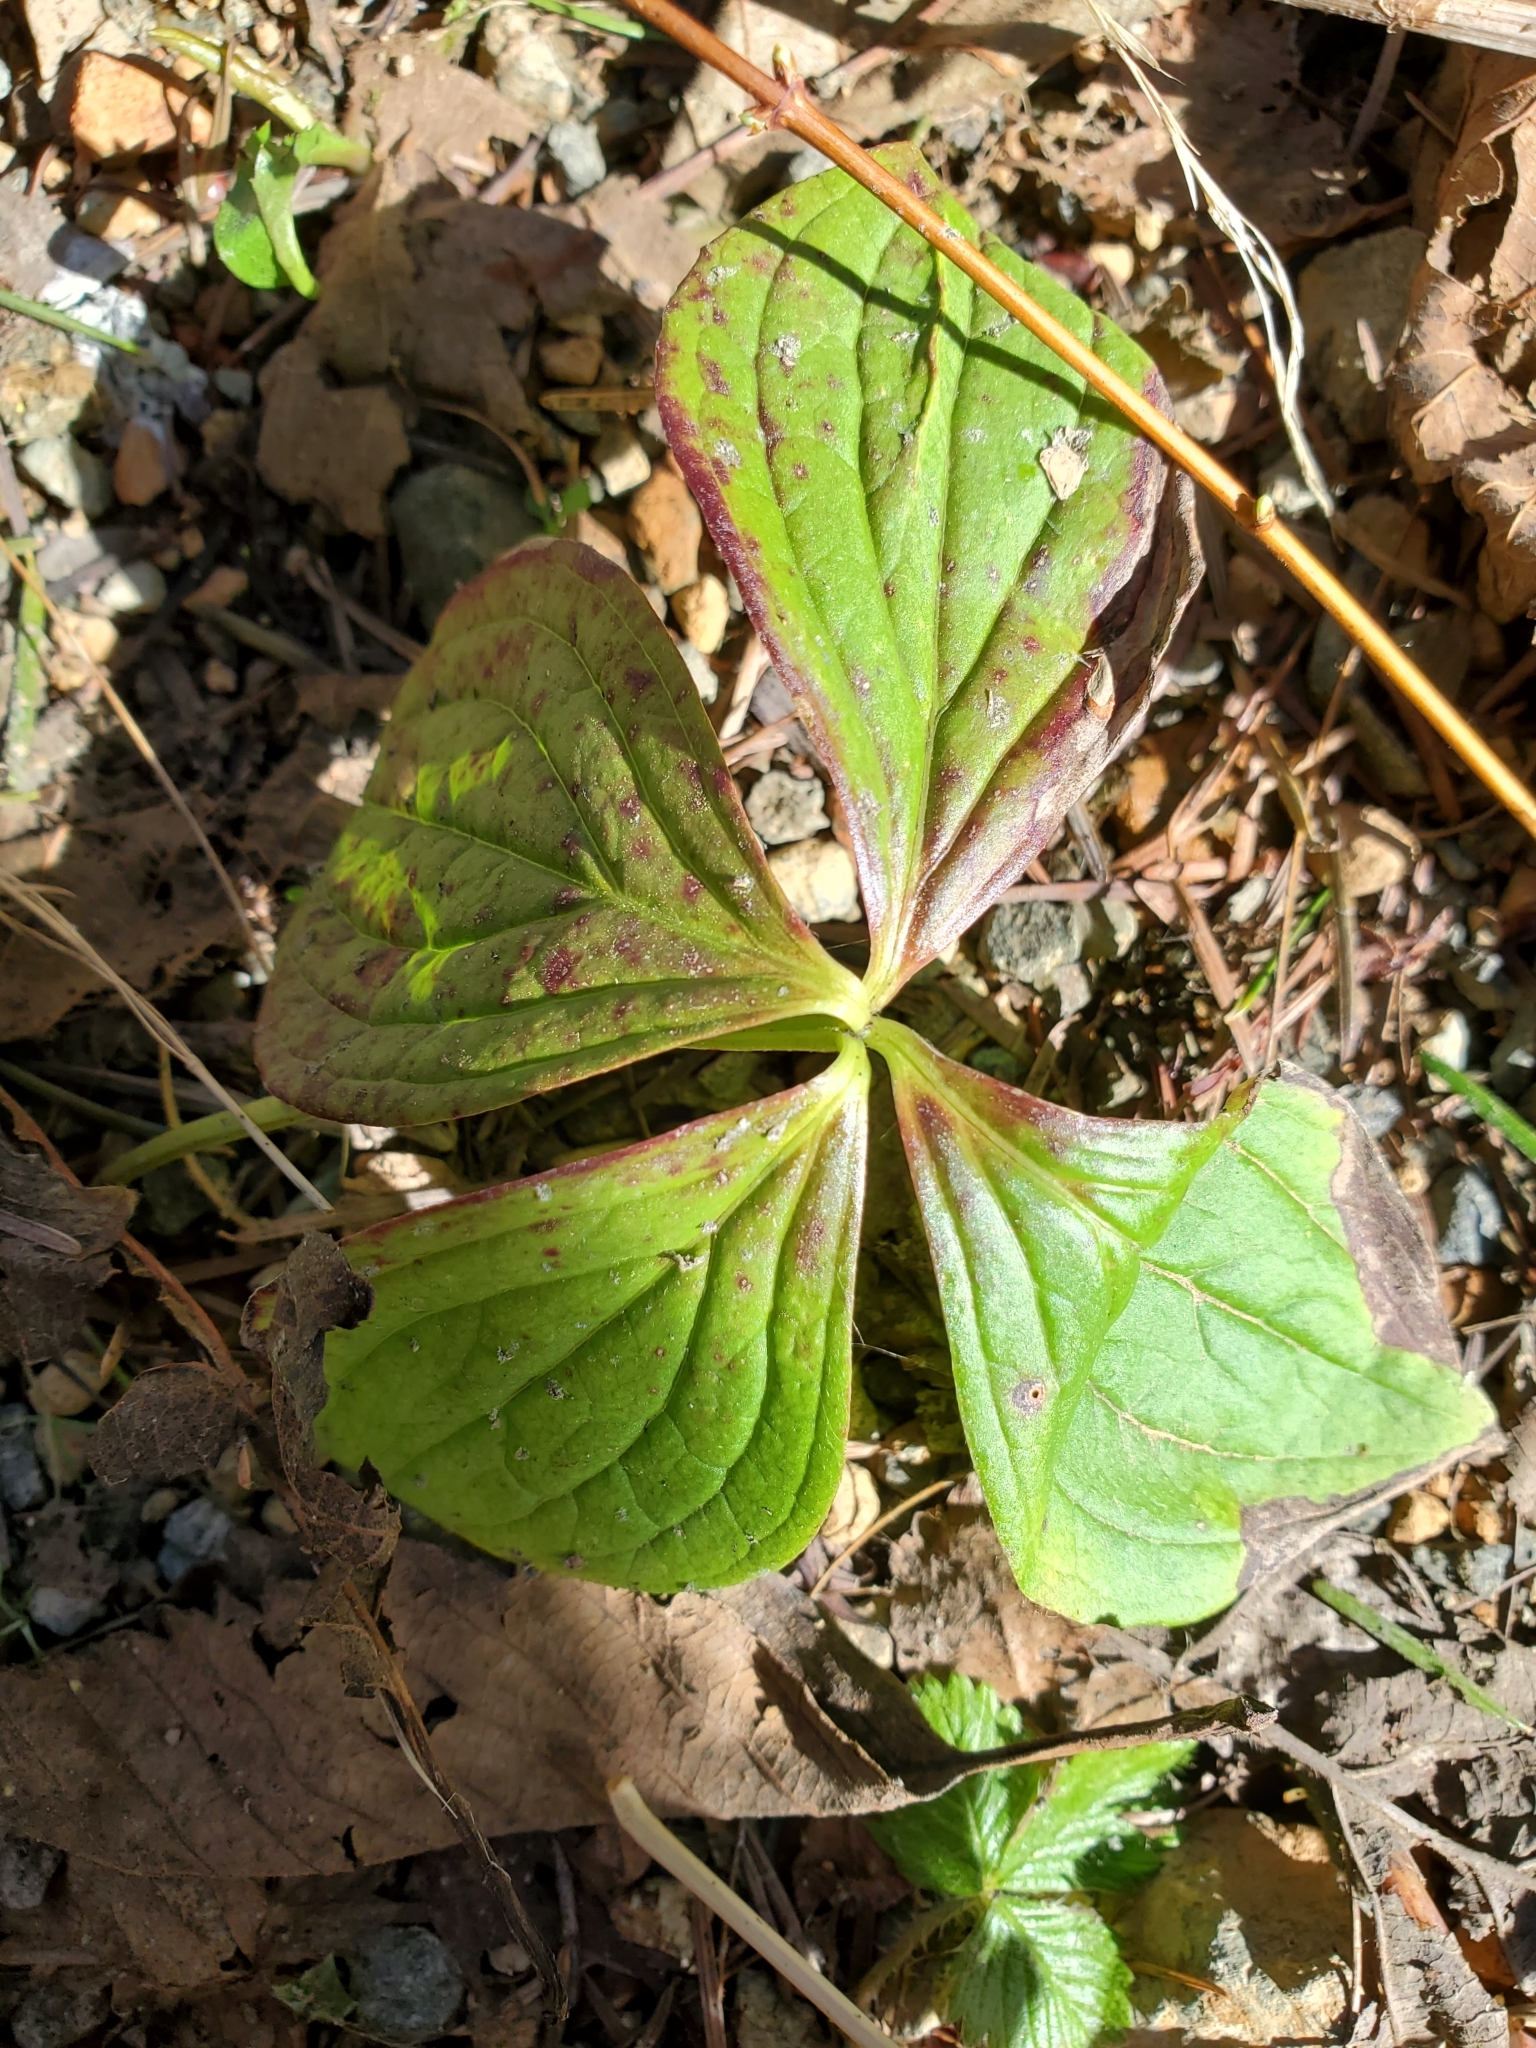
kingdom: Plantae
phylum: Tracheophyta
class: Magnoliopsida
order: Cornales
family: Cornaceae
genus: Cornus
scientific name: Cornus unalaschkensis
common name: Alaska bunchberry
